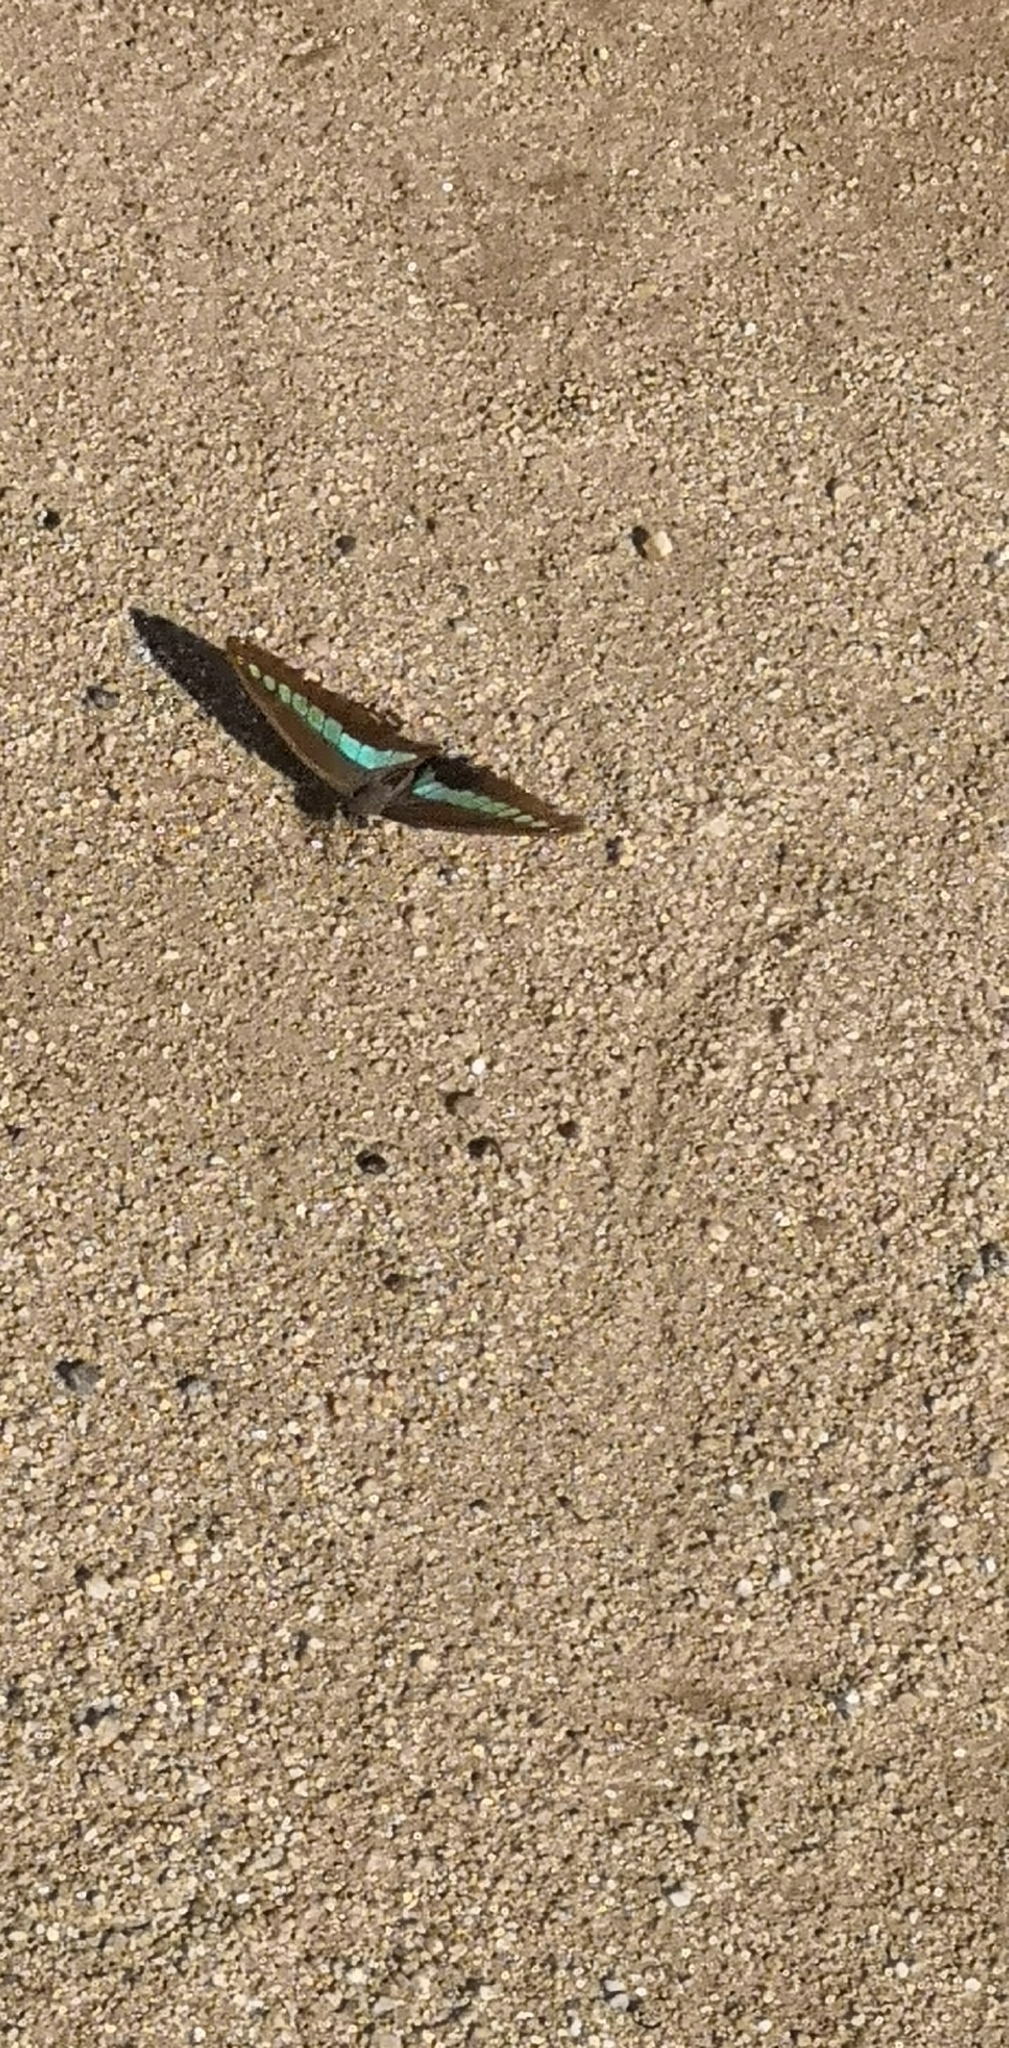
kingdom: Fungi
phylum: Ascomycota
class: Sordariomycetes
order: Microascales
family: Microascaceae
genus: Graphium
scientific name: Graphium sarpedon
